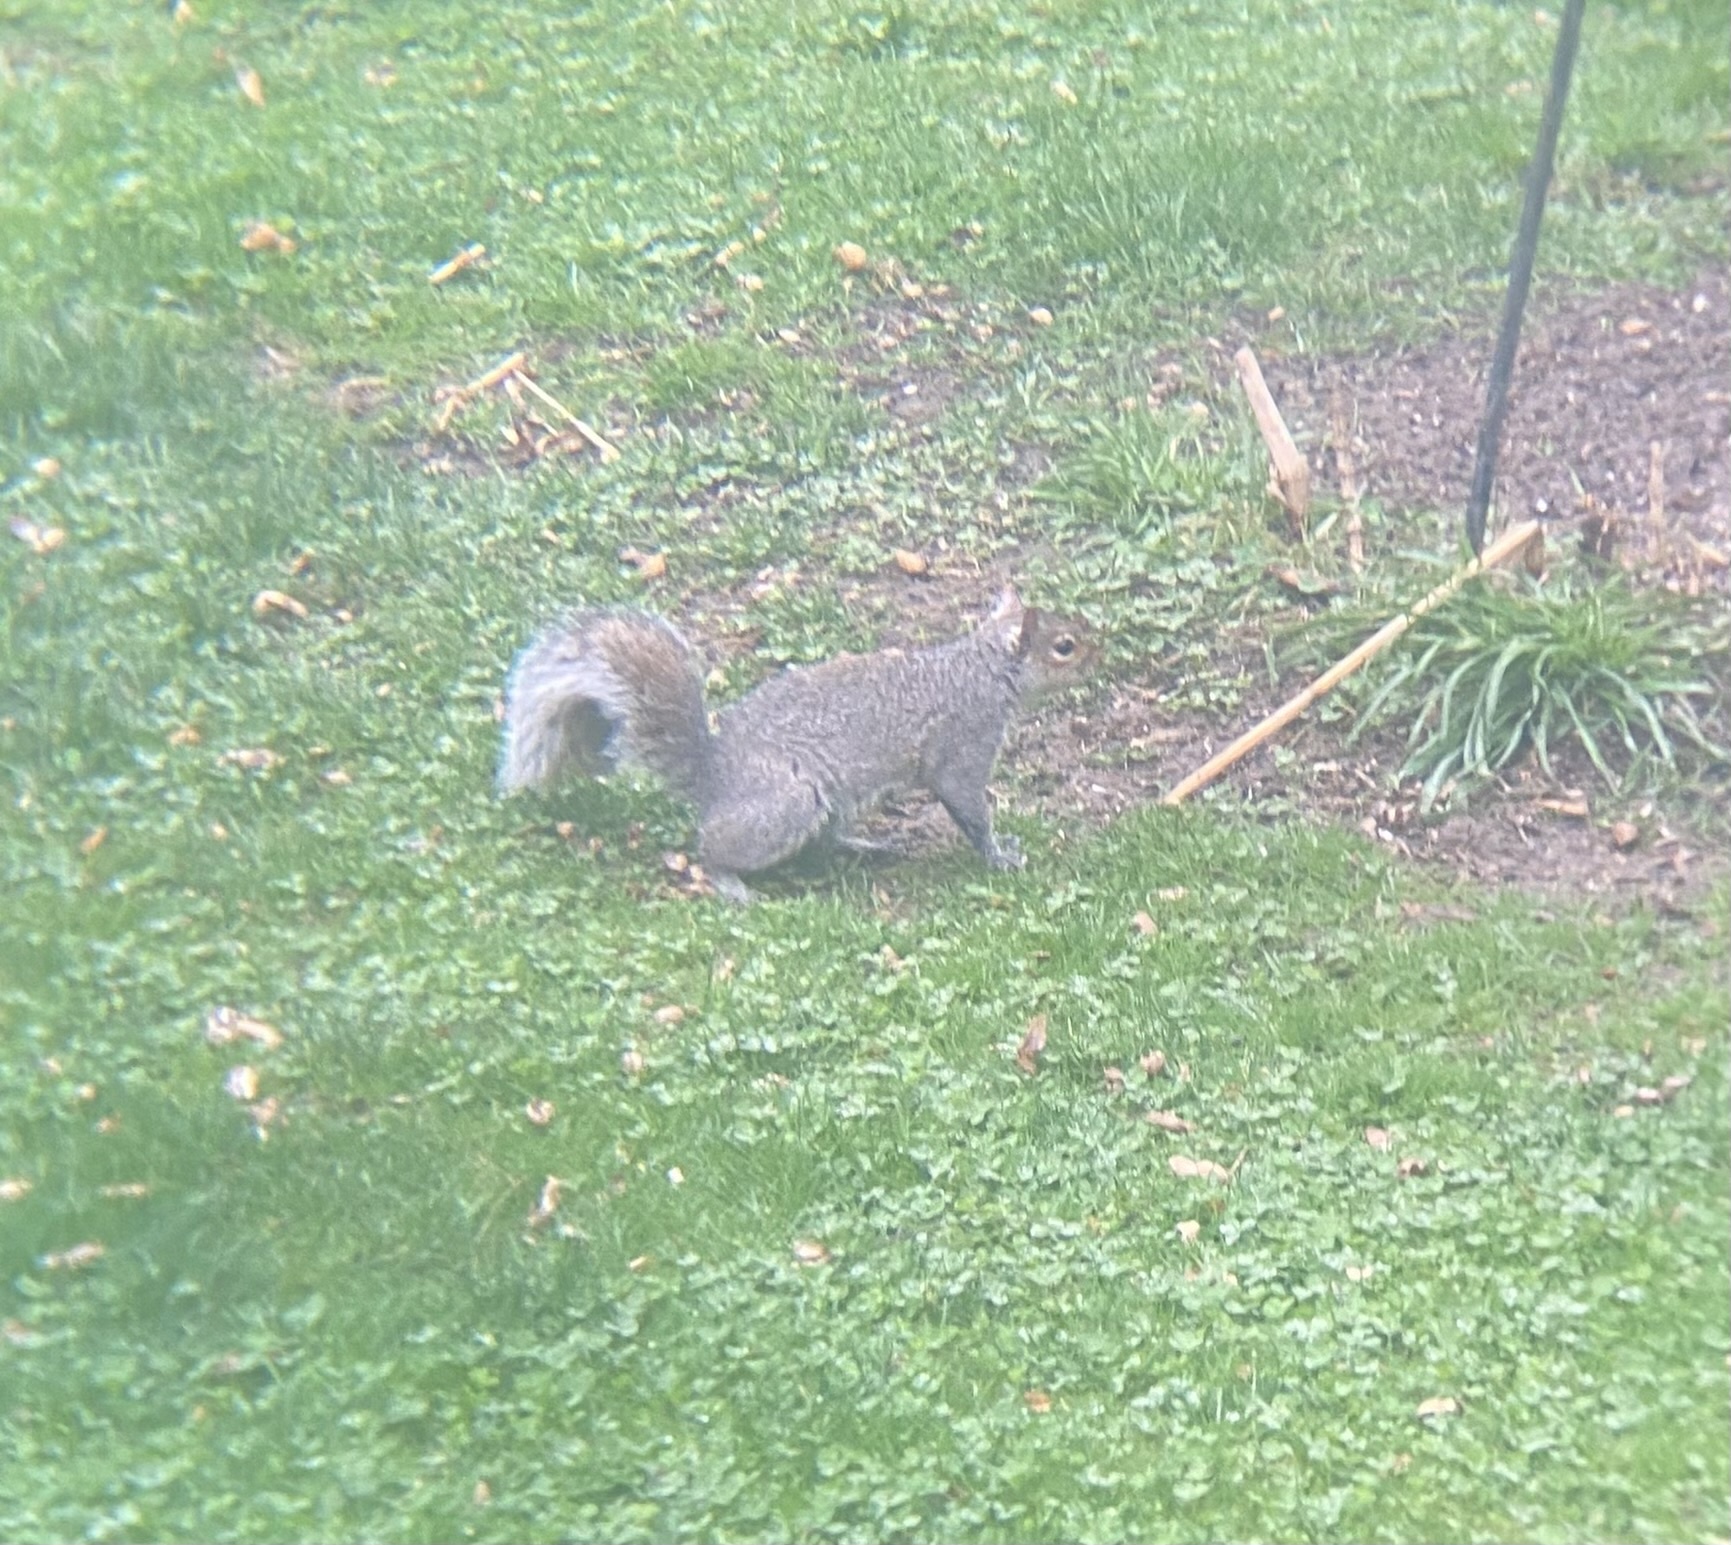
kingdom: Animalia
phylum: Chordata
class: Mammalia
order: Rodentia
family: Sciuridae
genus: Sciurus
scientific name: Sciurus carolinensis
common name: Eastern gray squirrel
